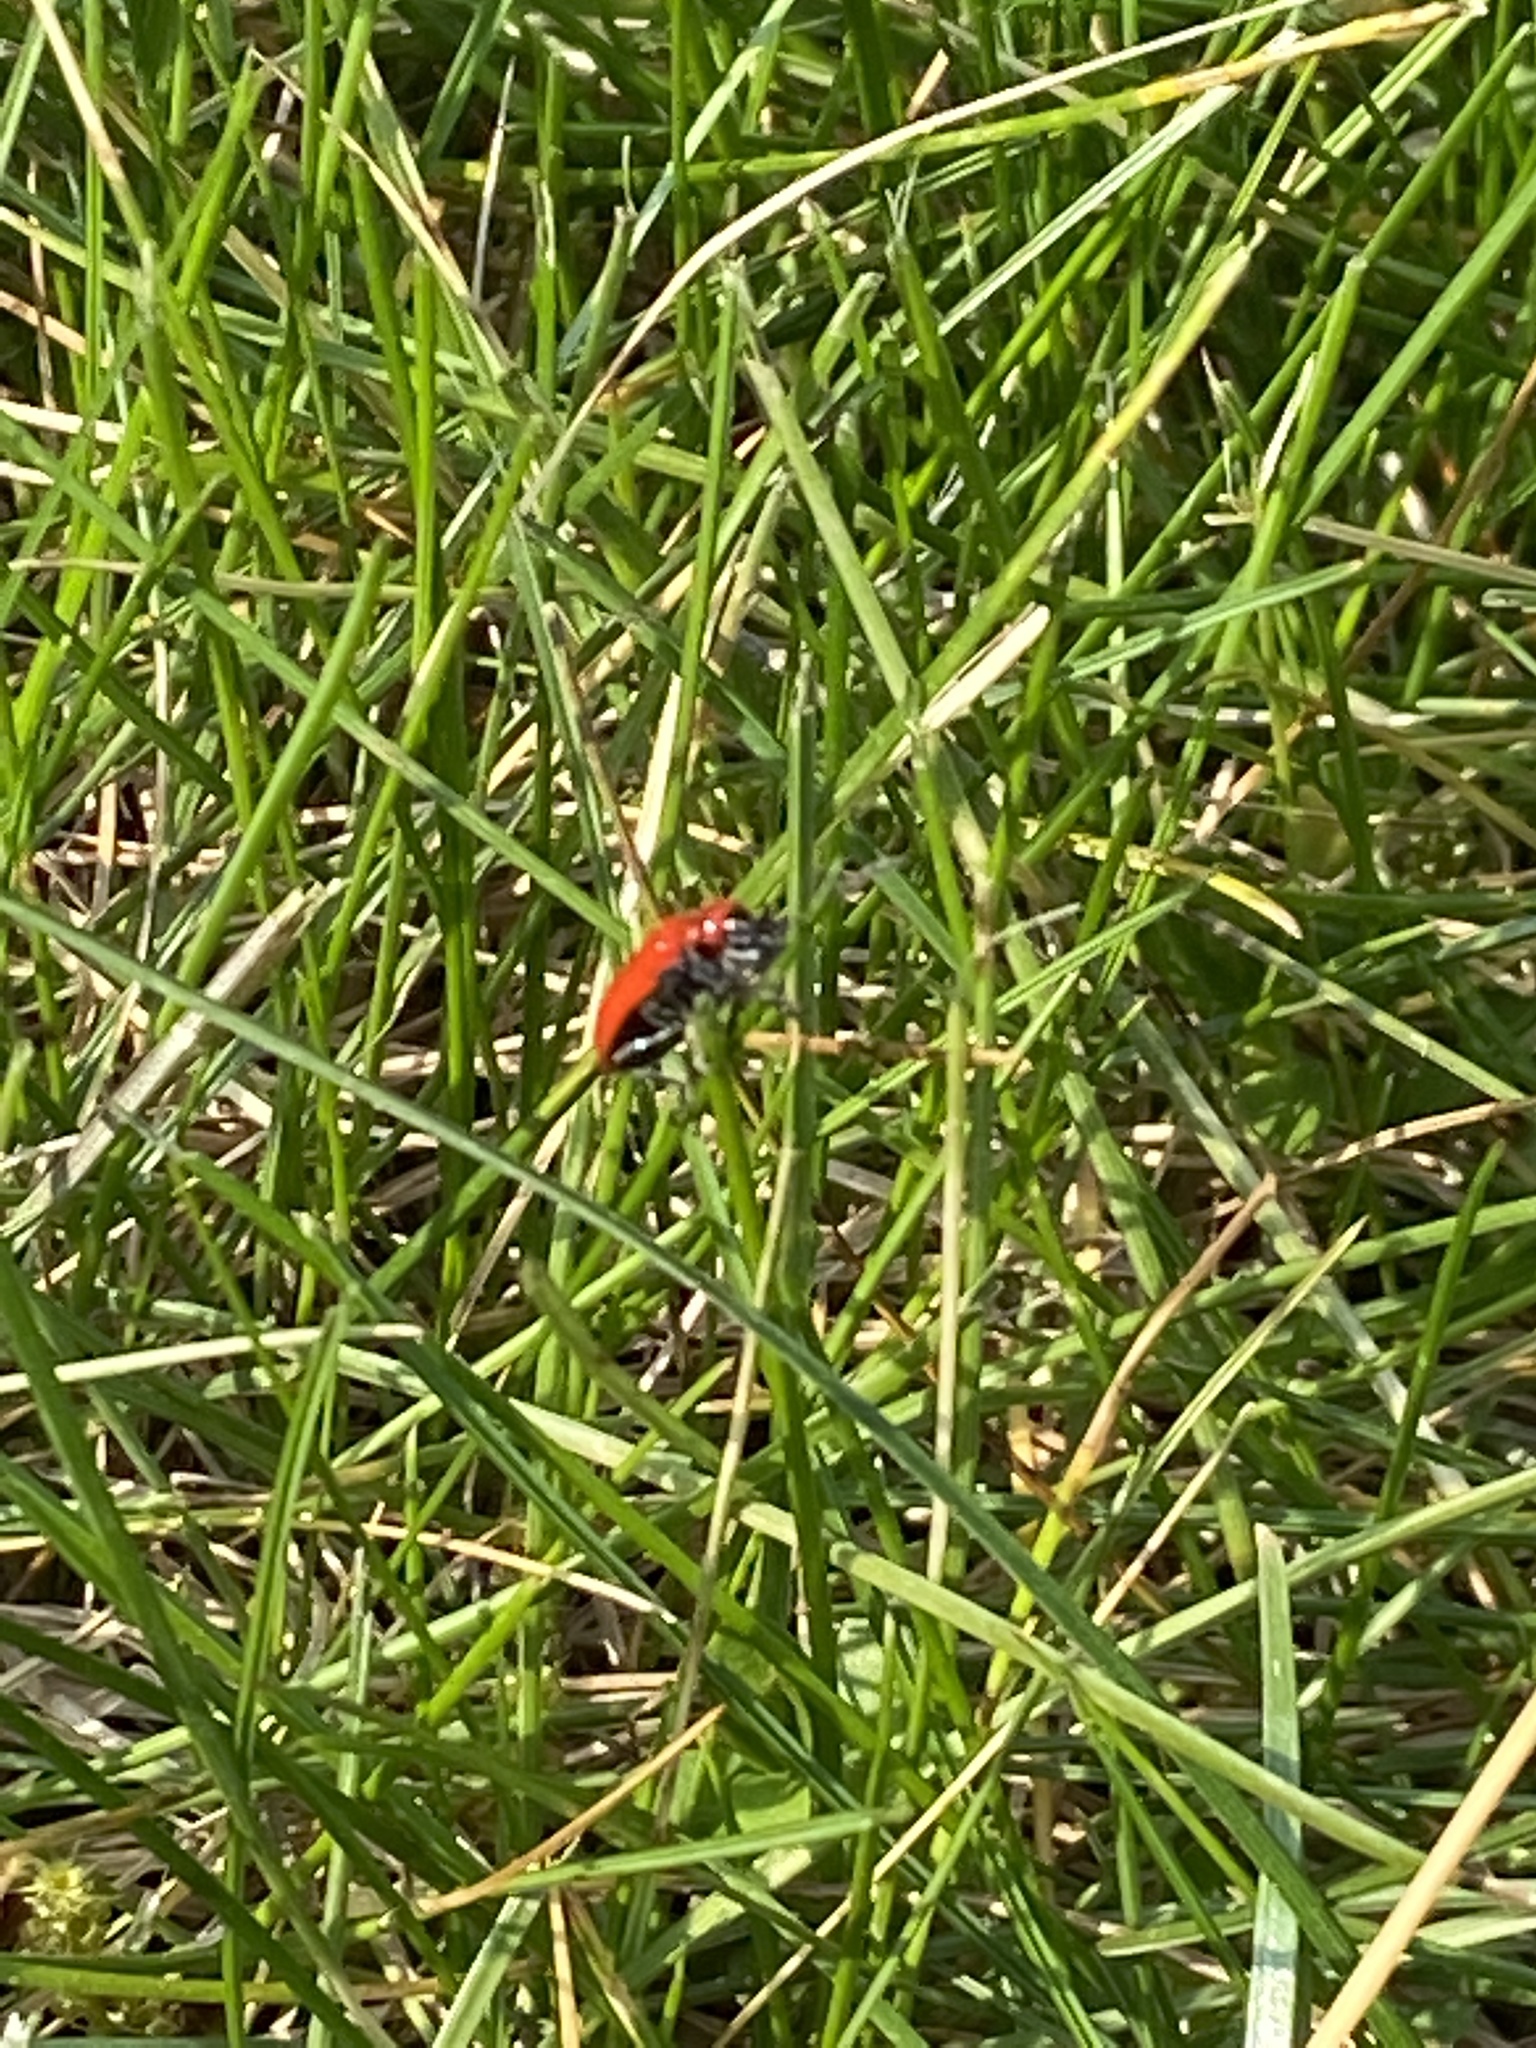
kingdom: Animalia
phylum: Arthropoda
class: Insecta
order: Coleoptera
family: Chrysomelidae
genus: Lilioceris
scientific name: Lilioceris lilii
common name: Lily beetle
